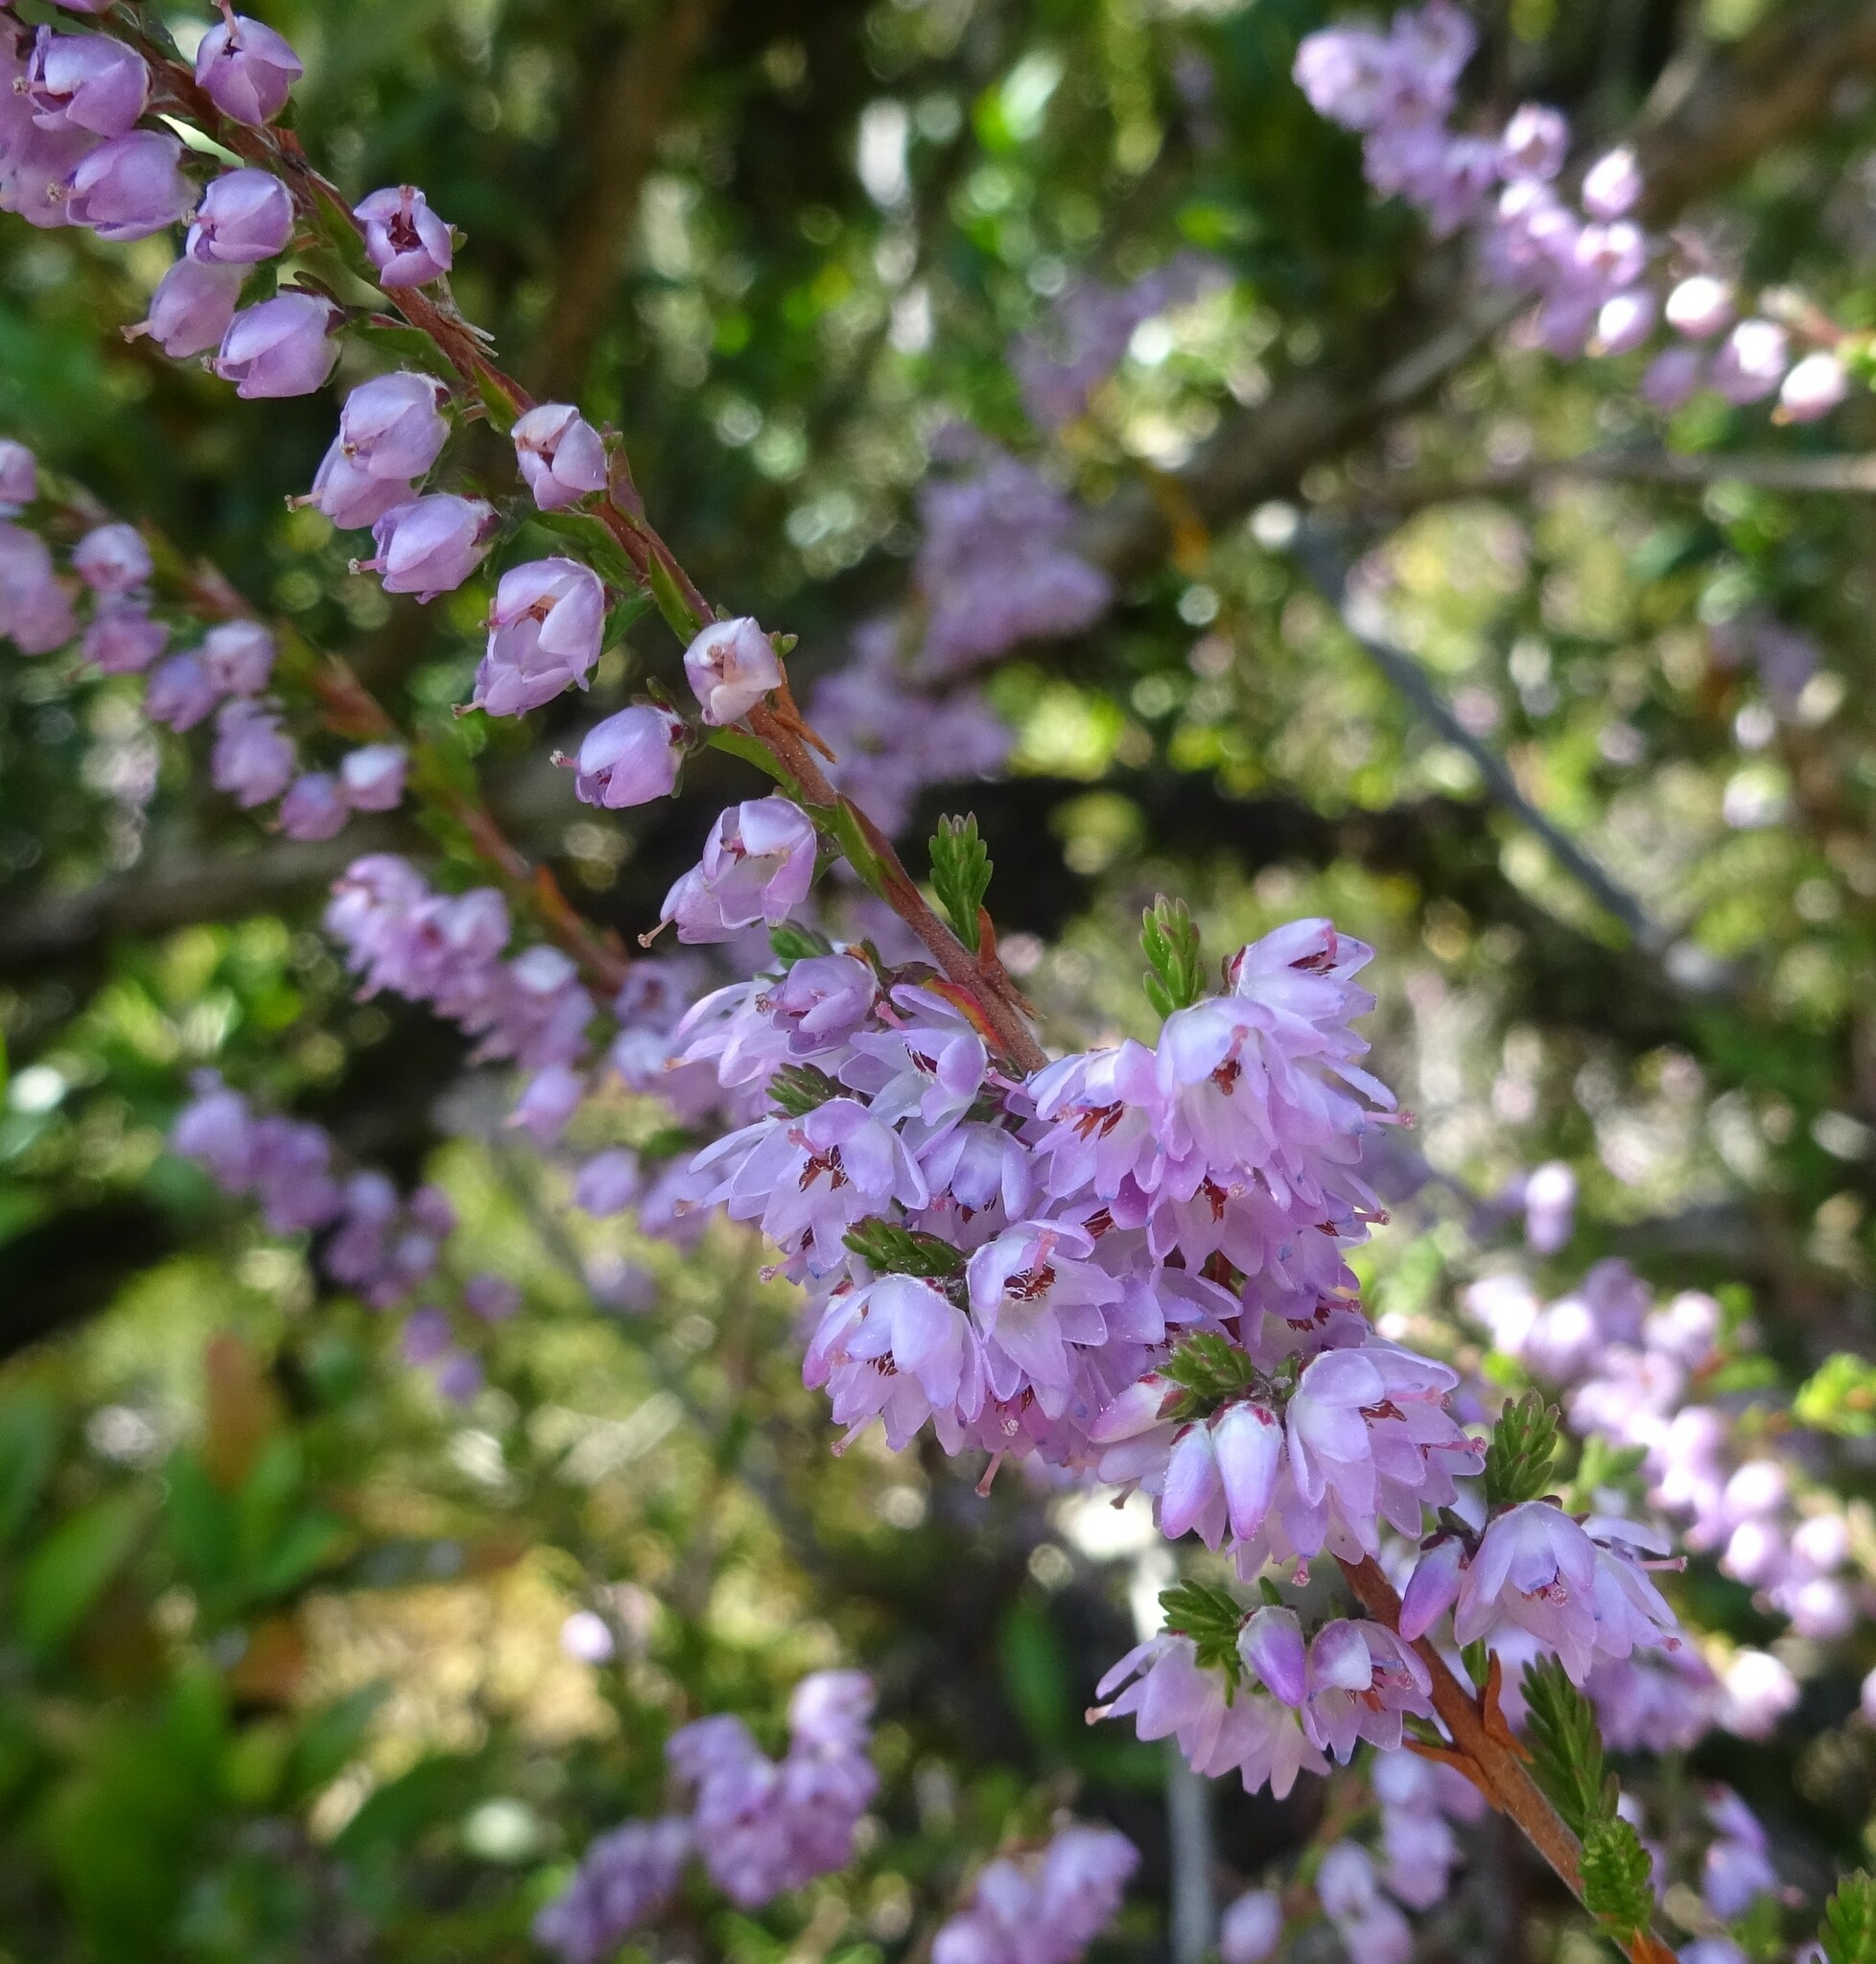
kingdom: Plantae
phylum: Tracheophyta
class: Magnoliopsida
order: Ericales
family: Ericaceae
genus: Calluna
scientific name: Calluna vulgaris
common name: Heather
